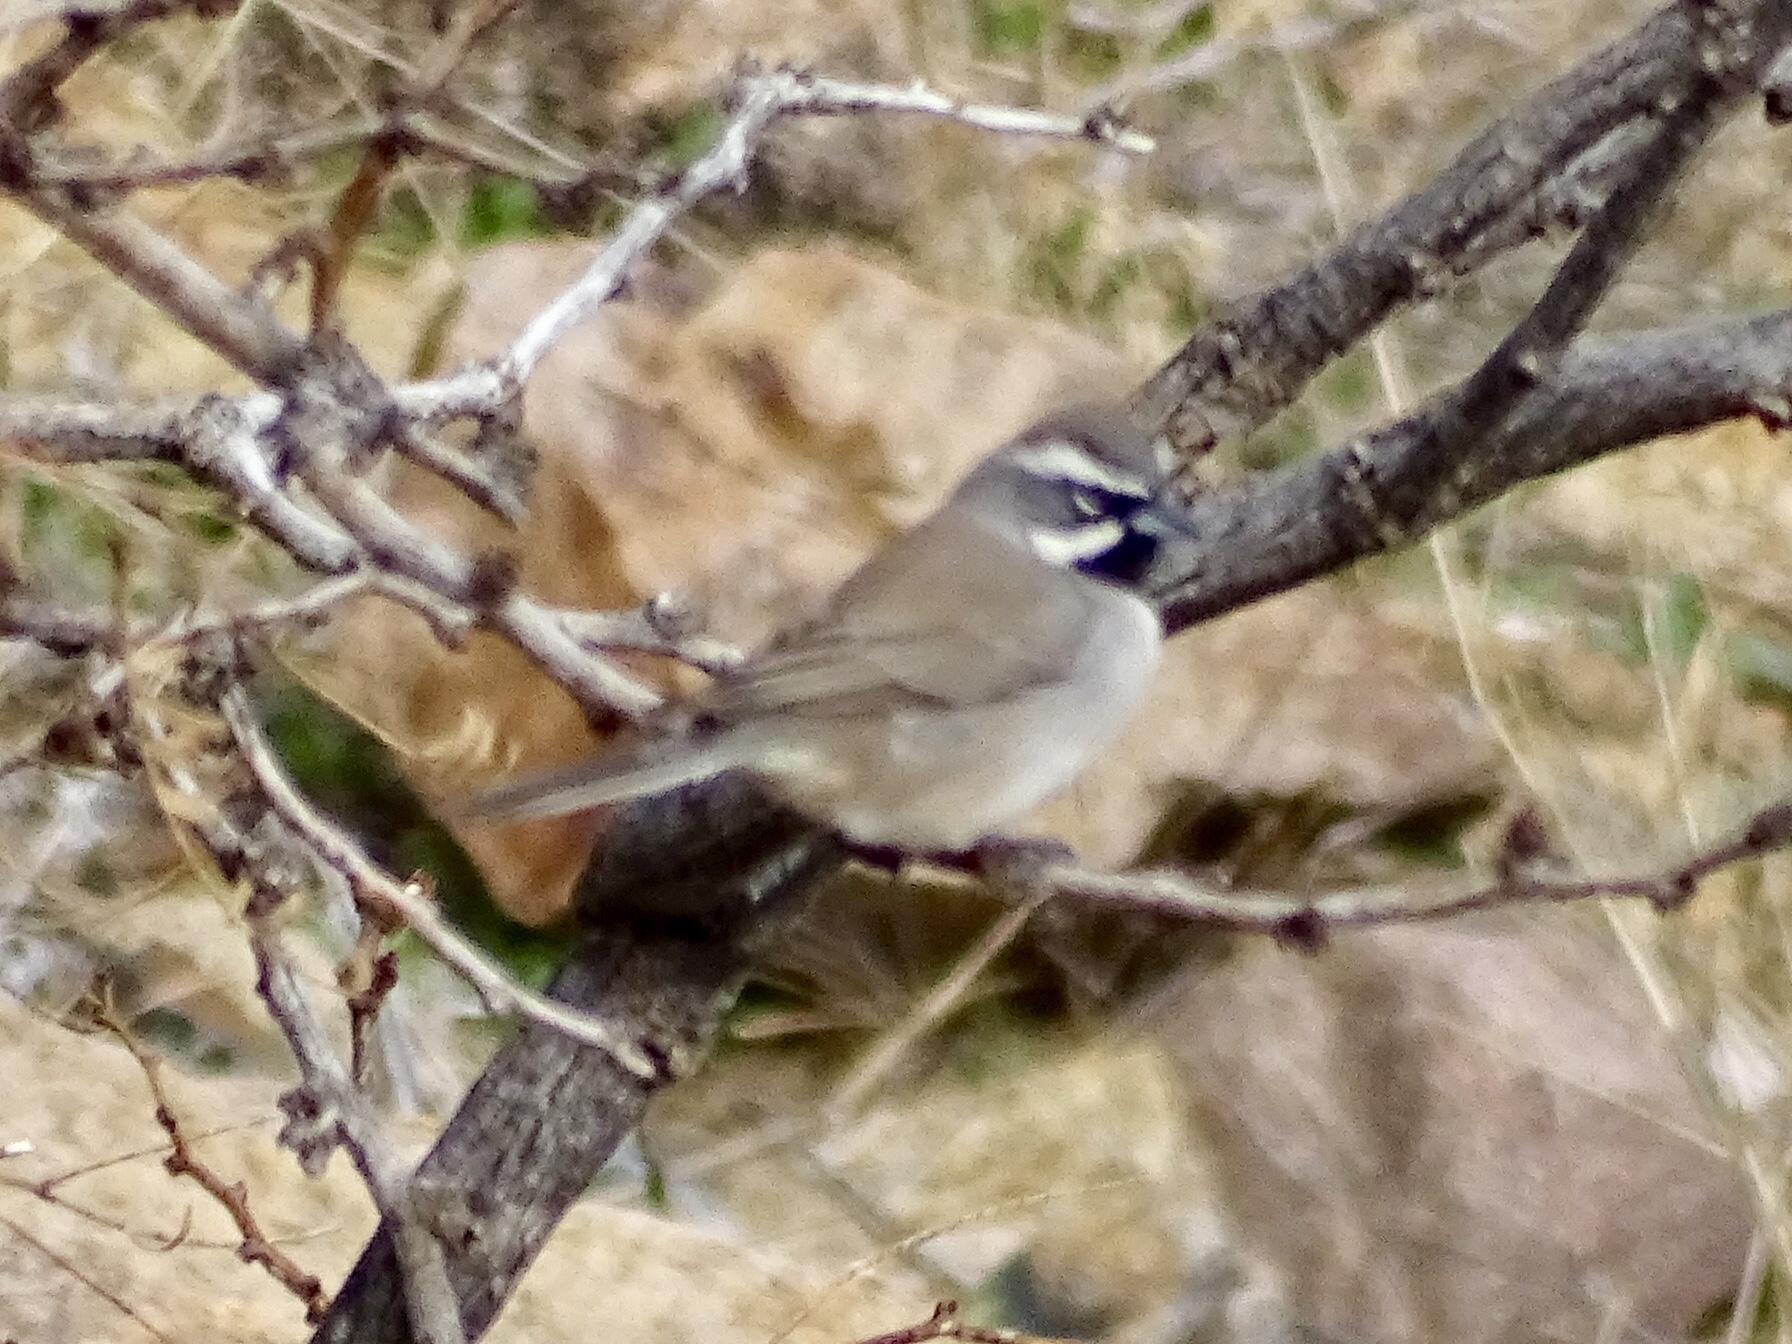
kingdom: Animalia
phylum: Chordata
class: Aves
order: Passeriformes
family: Passerellidae
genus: Amphispiza
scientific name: Amphispiza bilineata
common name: Black-throated sparrow
